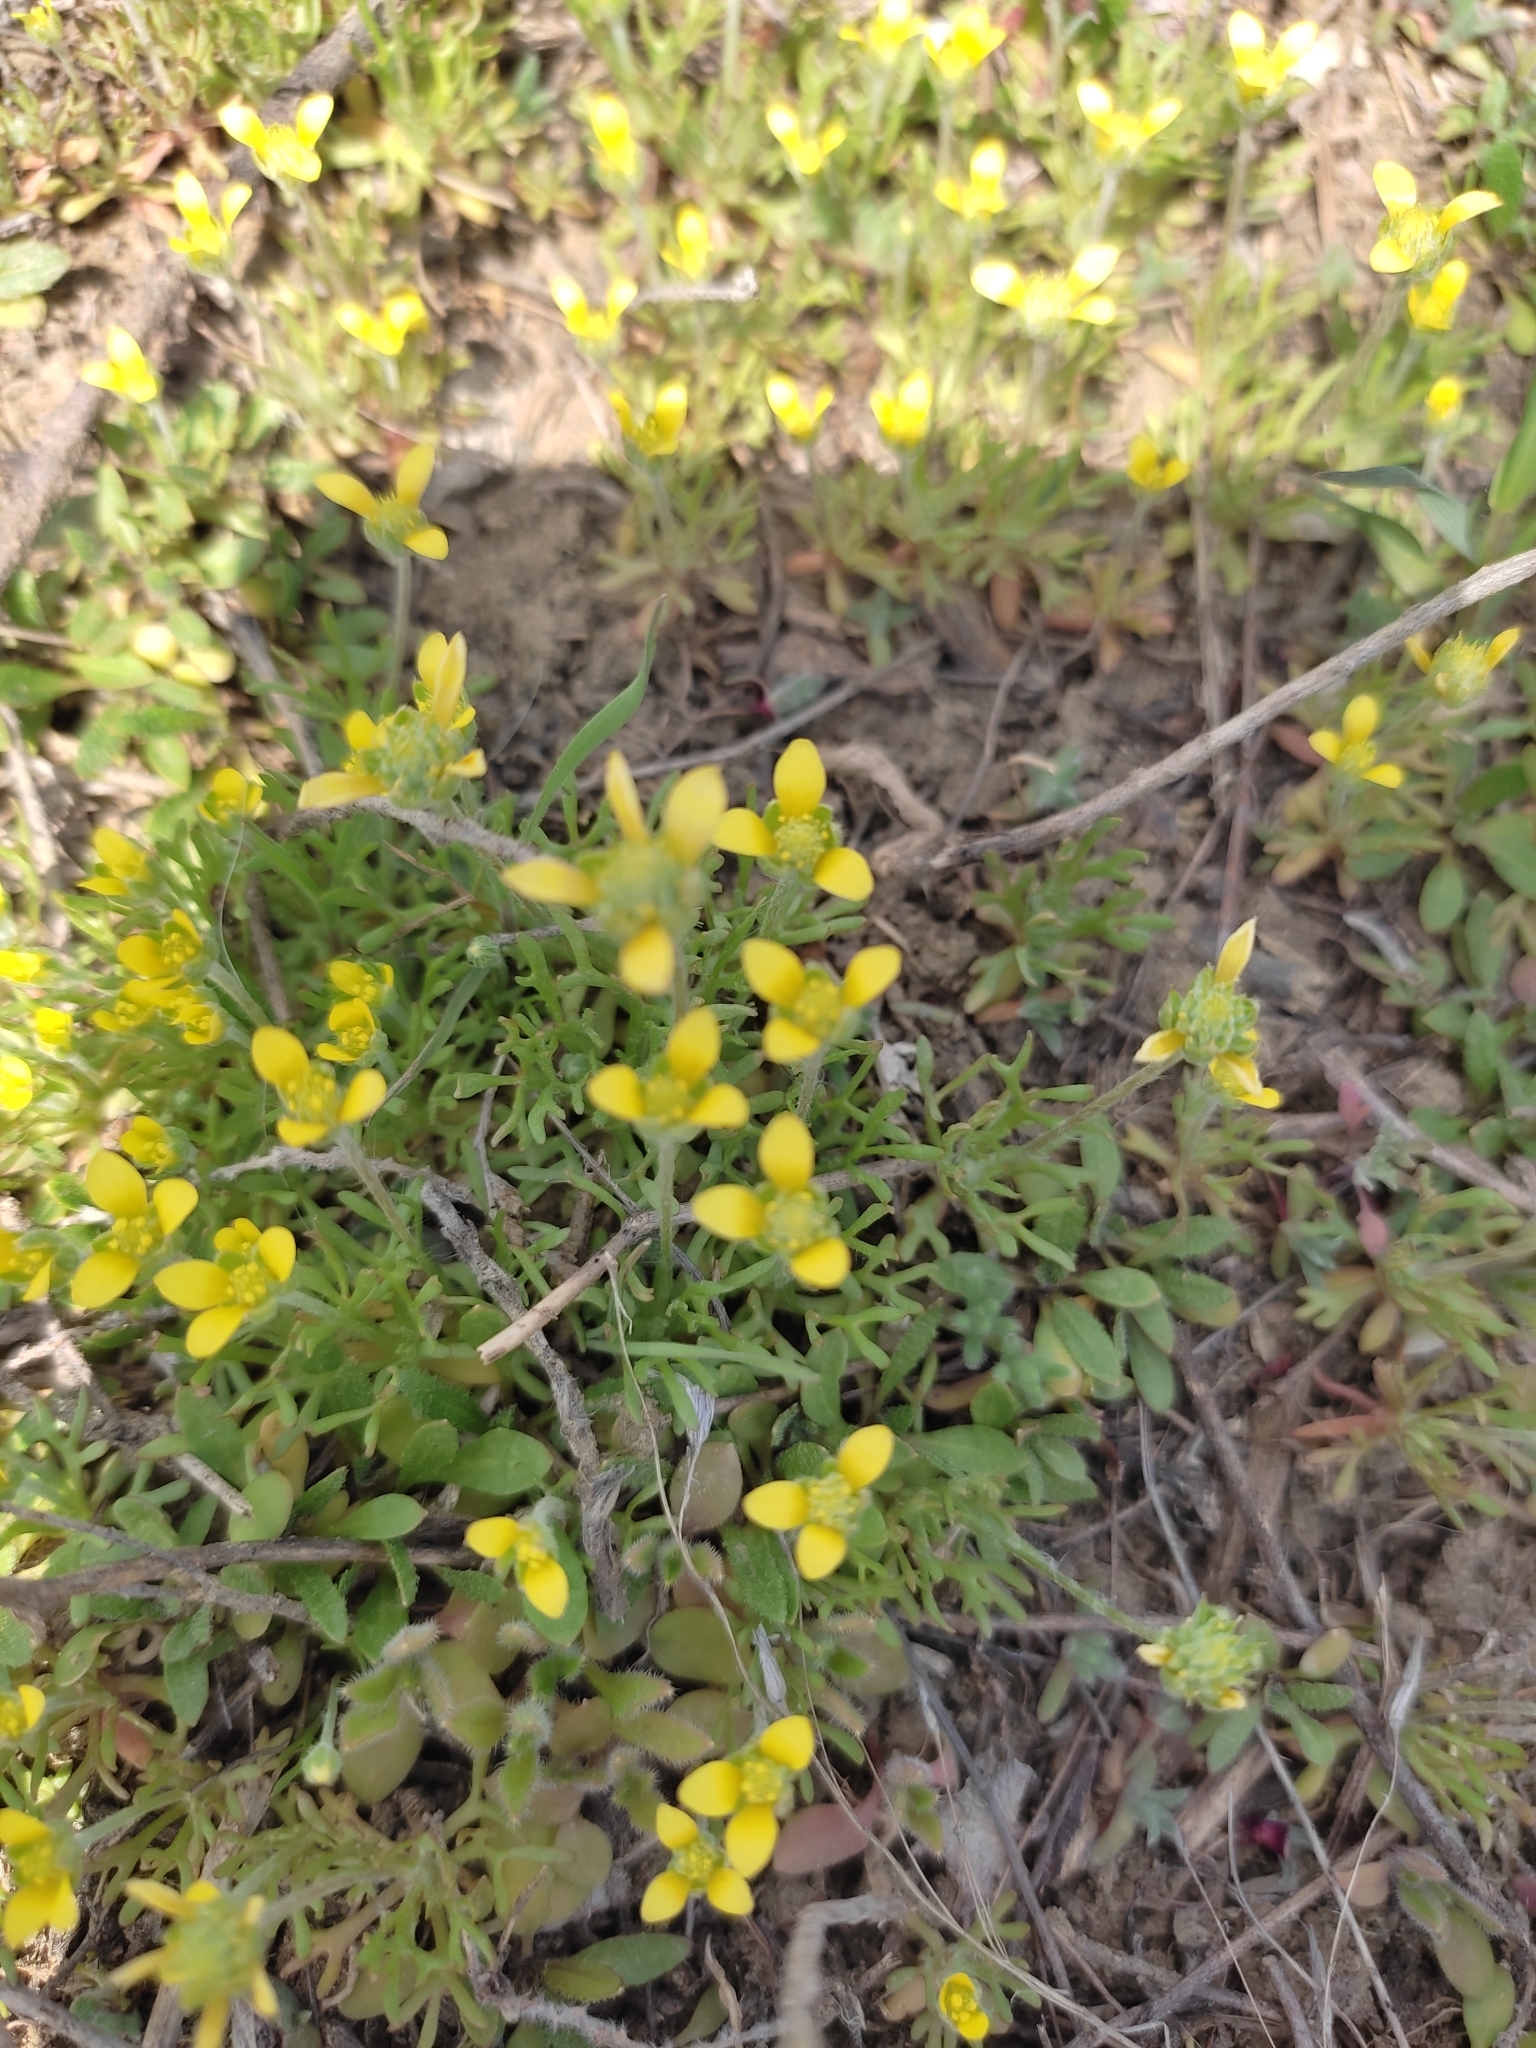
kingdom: Plantae
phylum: Tracheophyta
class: Magnoliopsida
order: Ranunculales
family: Ranunculaceae
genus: Ceratocephala
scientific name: Ceratocephala orthoceras
